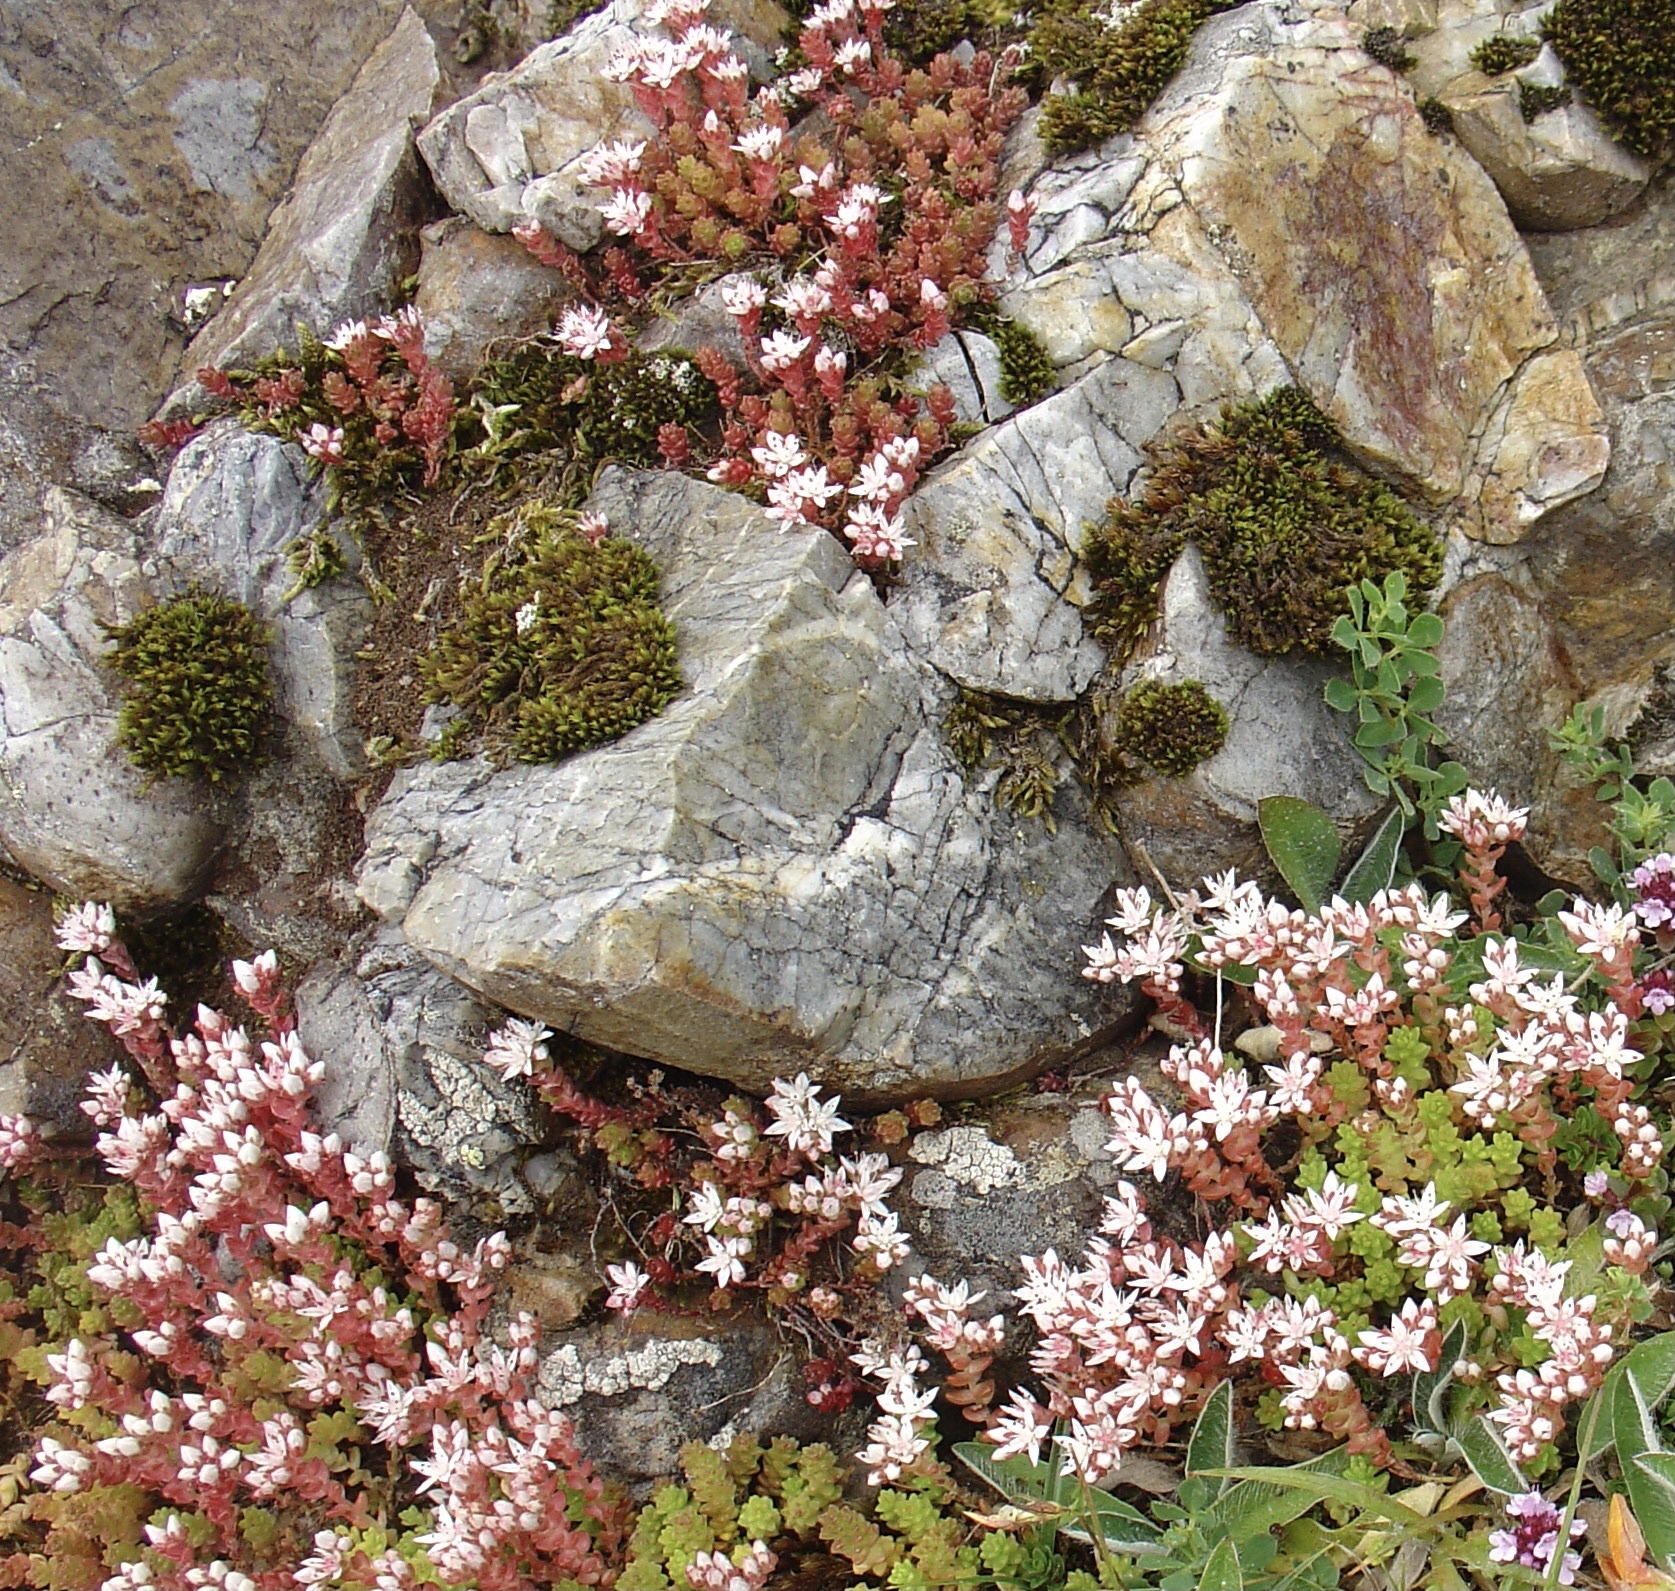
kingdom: Plantae
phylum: Tracheophyta
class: Magnoliopsida
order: Saxifragales
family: Crassulaceae
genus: Sedum
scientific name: Sedum anglicum
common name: English stonecrop
